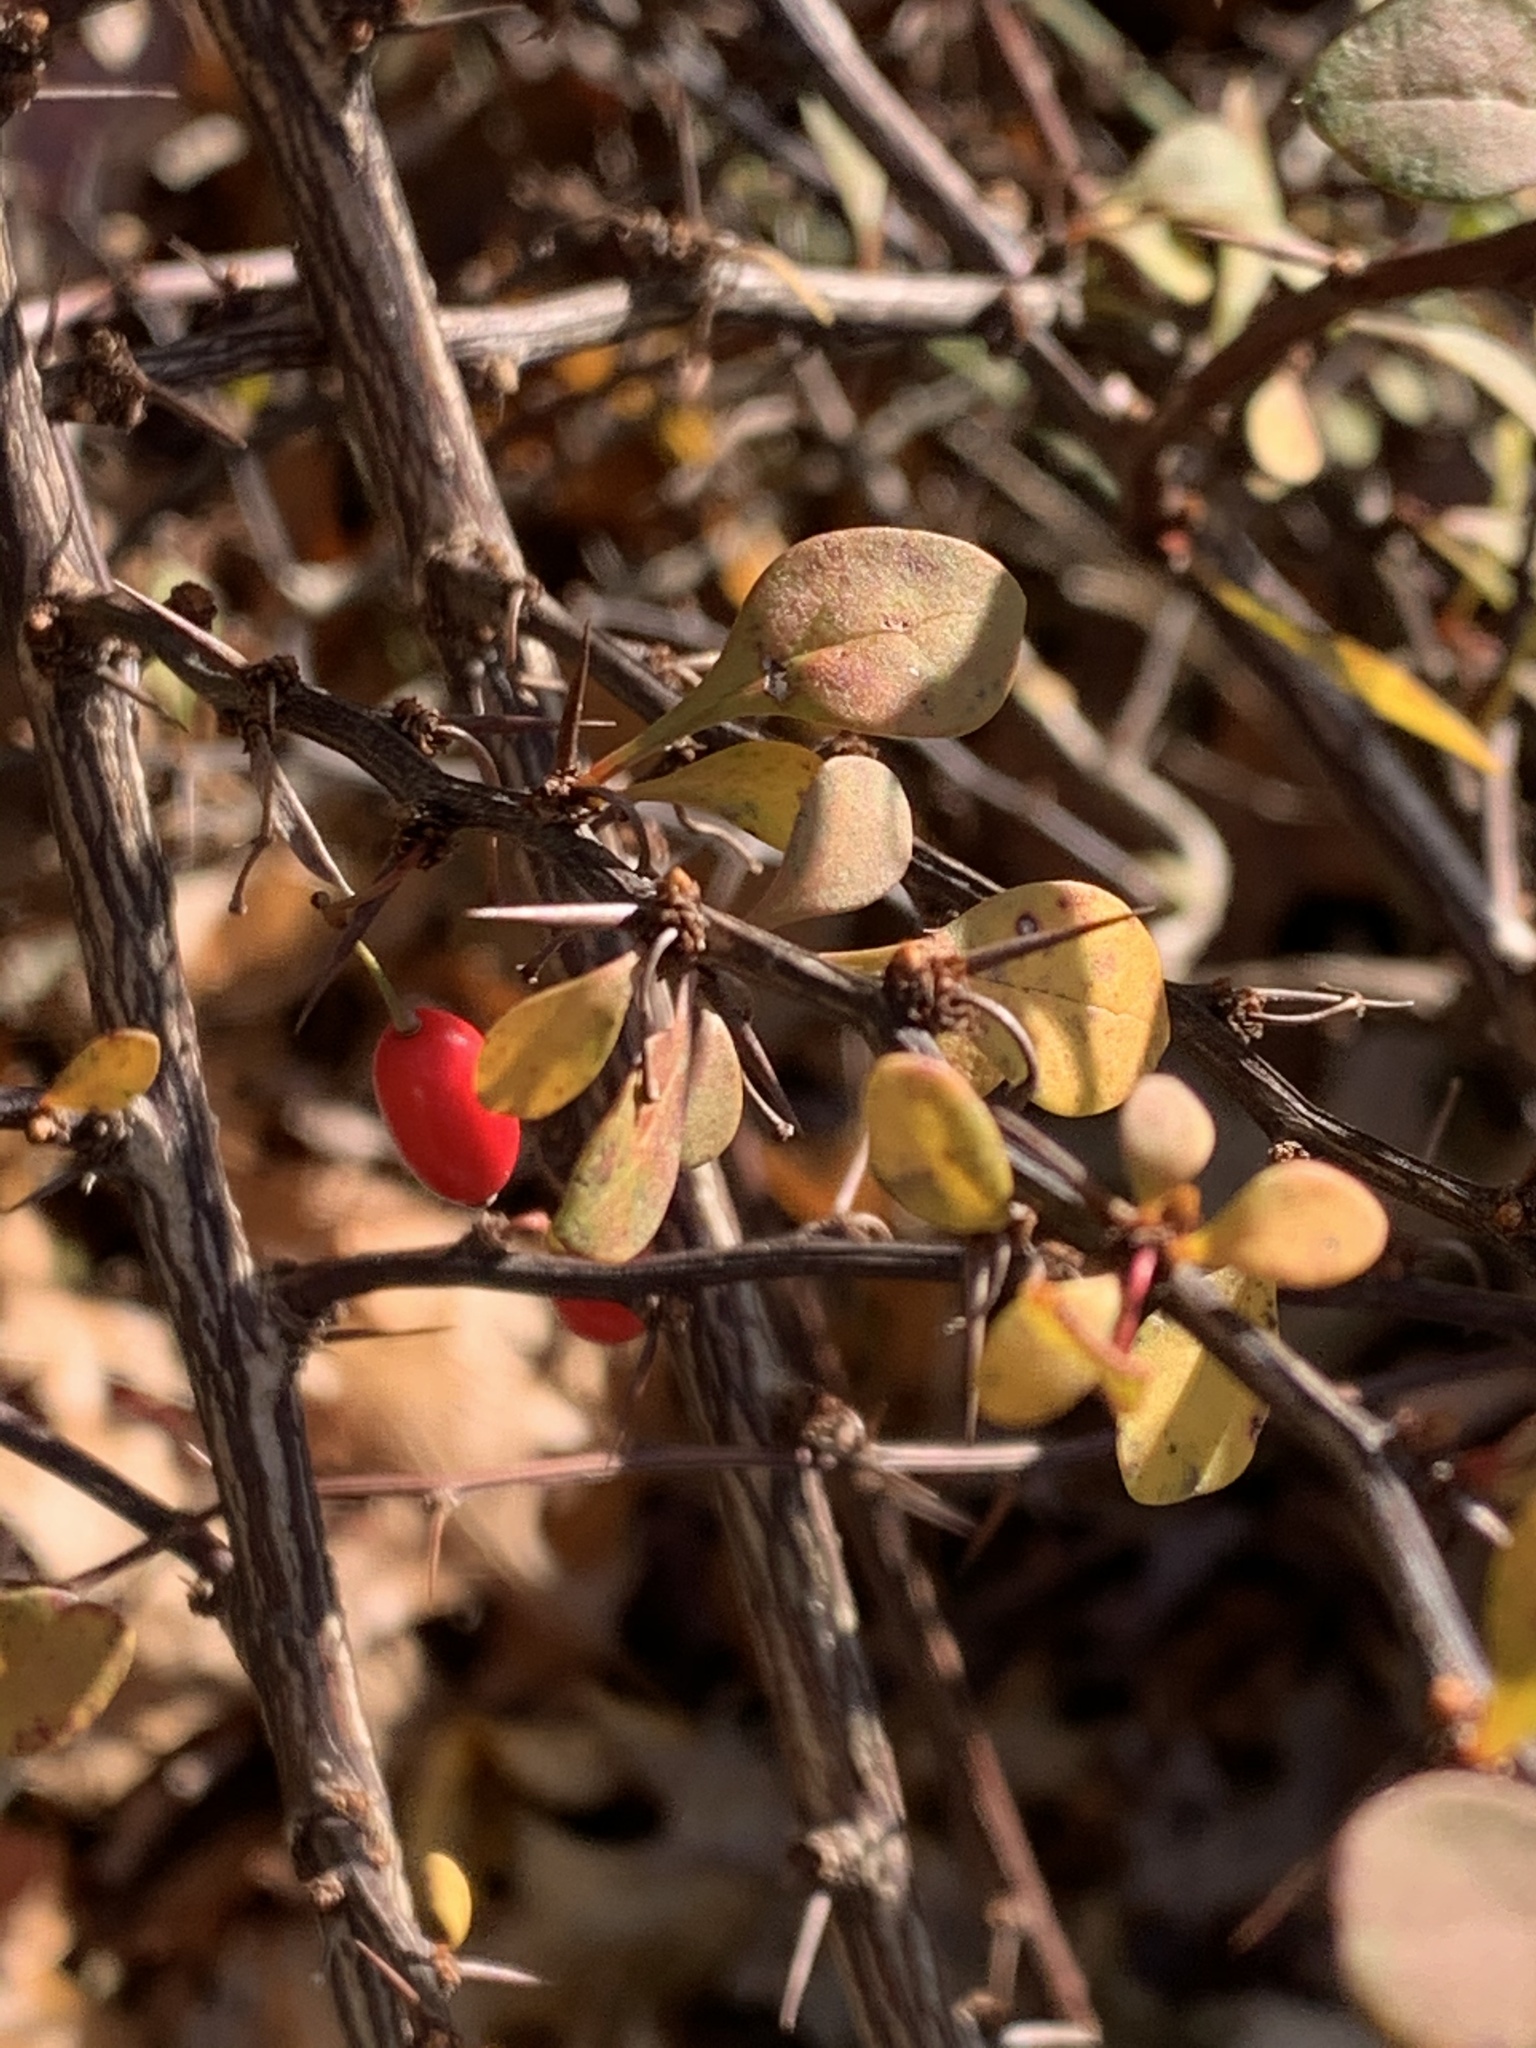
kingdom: Plantae
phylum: Tracheophyta
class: Magnoliopsida
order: Ranunculales
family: Berberidaceae
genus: Berberis
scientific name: Berberis thunbergii
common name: Japanese barberry
